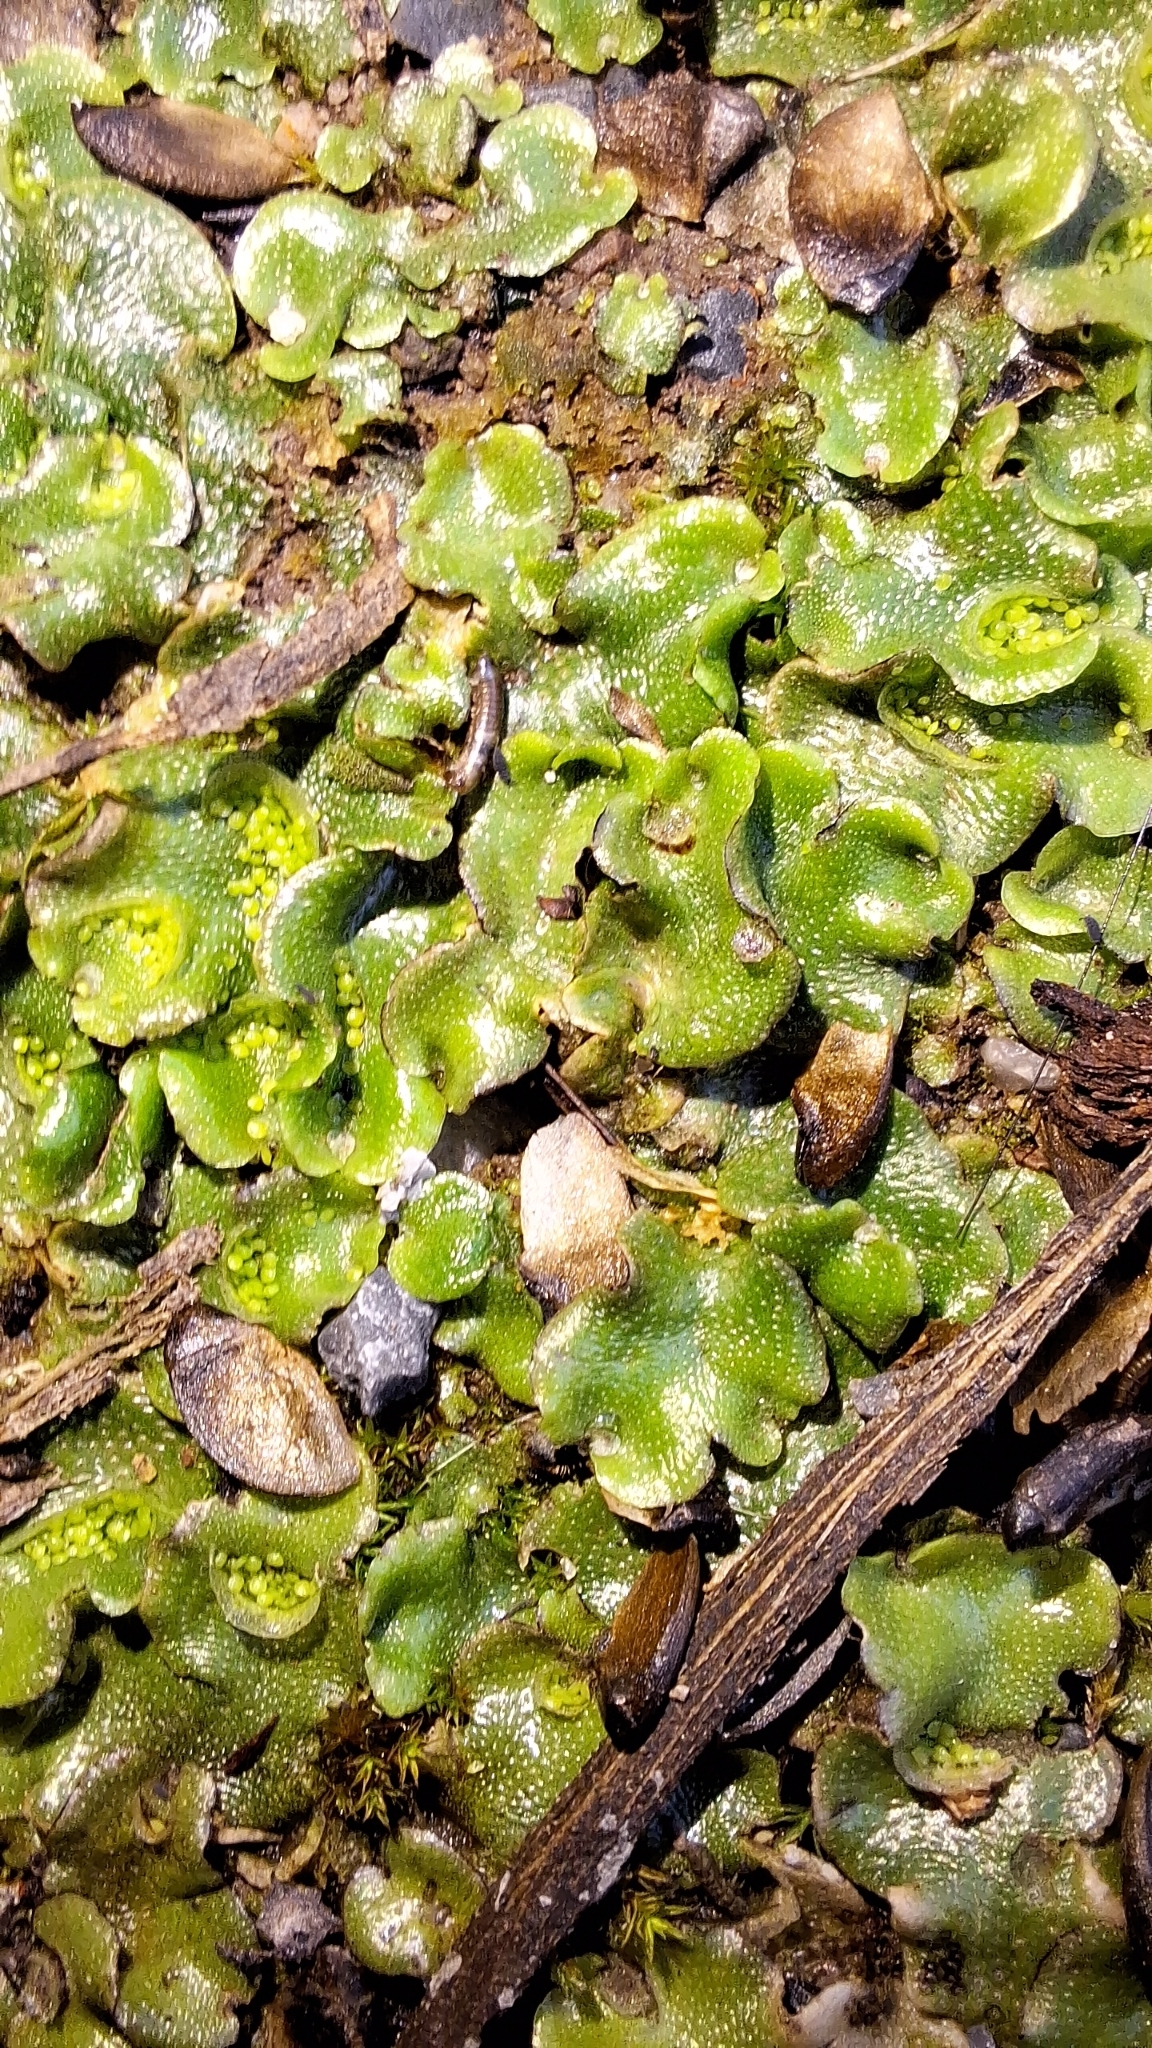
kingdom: Plantae
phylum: Marchantiophyta
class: Marchantiopsida
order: Lunulariales
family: Lunulariaceae
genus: Lunularia
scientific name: Lunularia cruciata
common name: Crescent-cup liverwort
